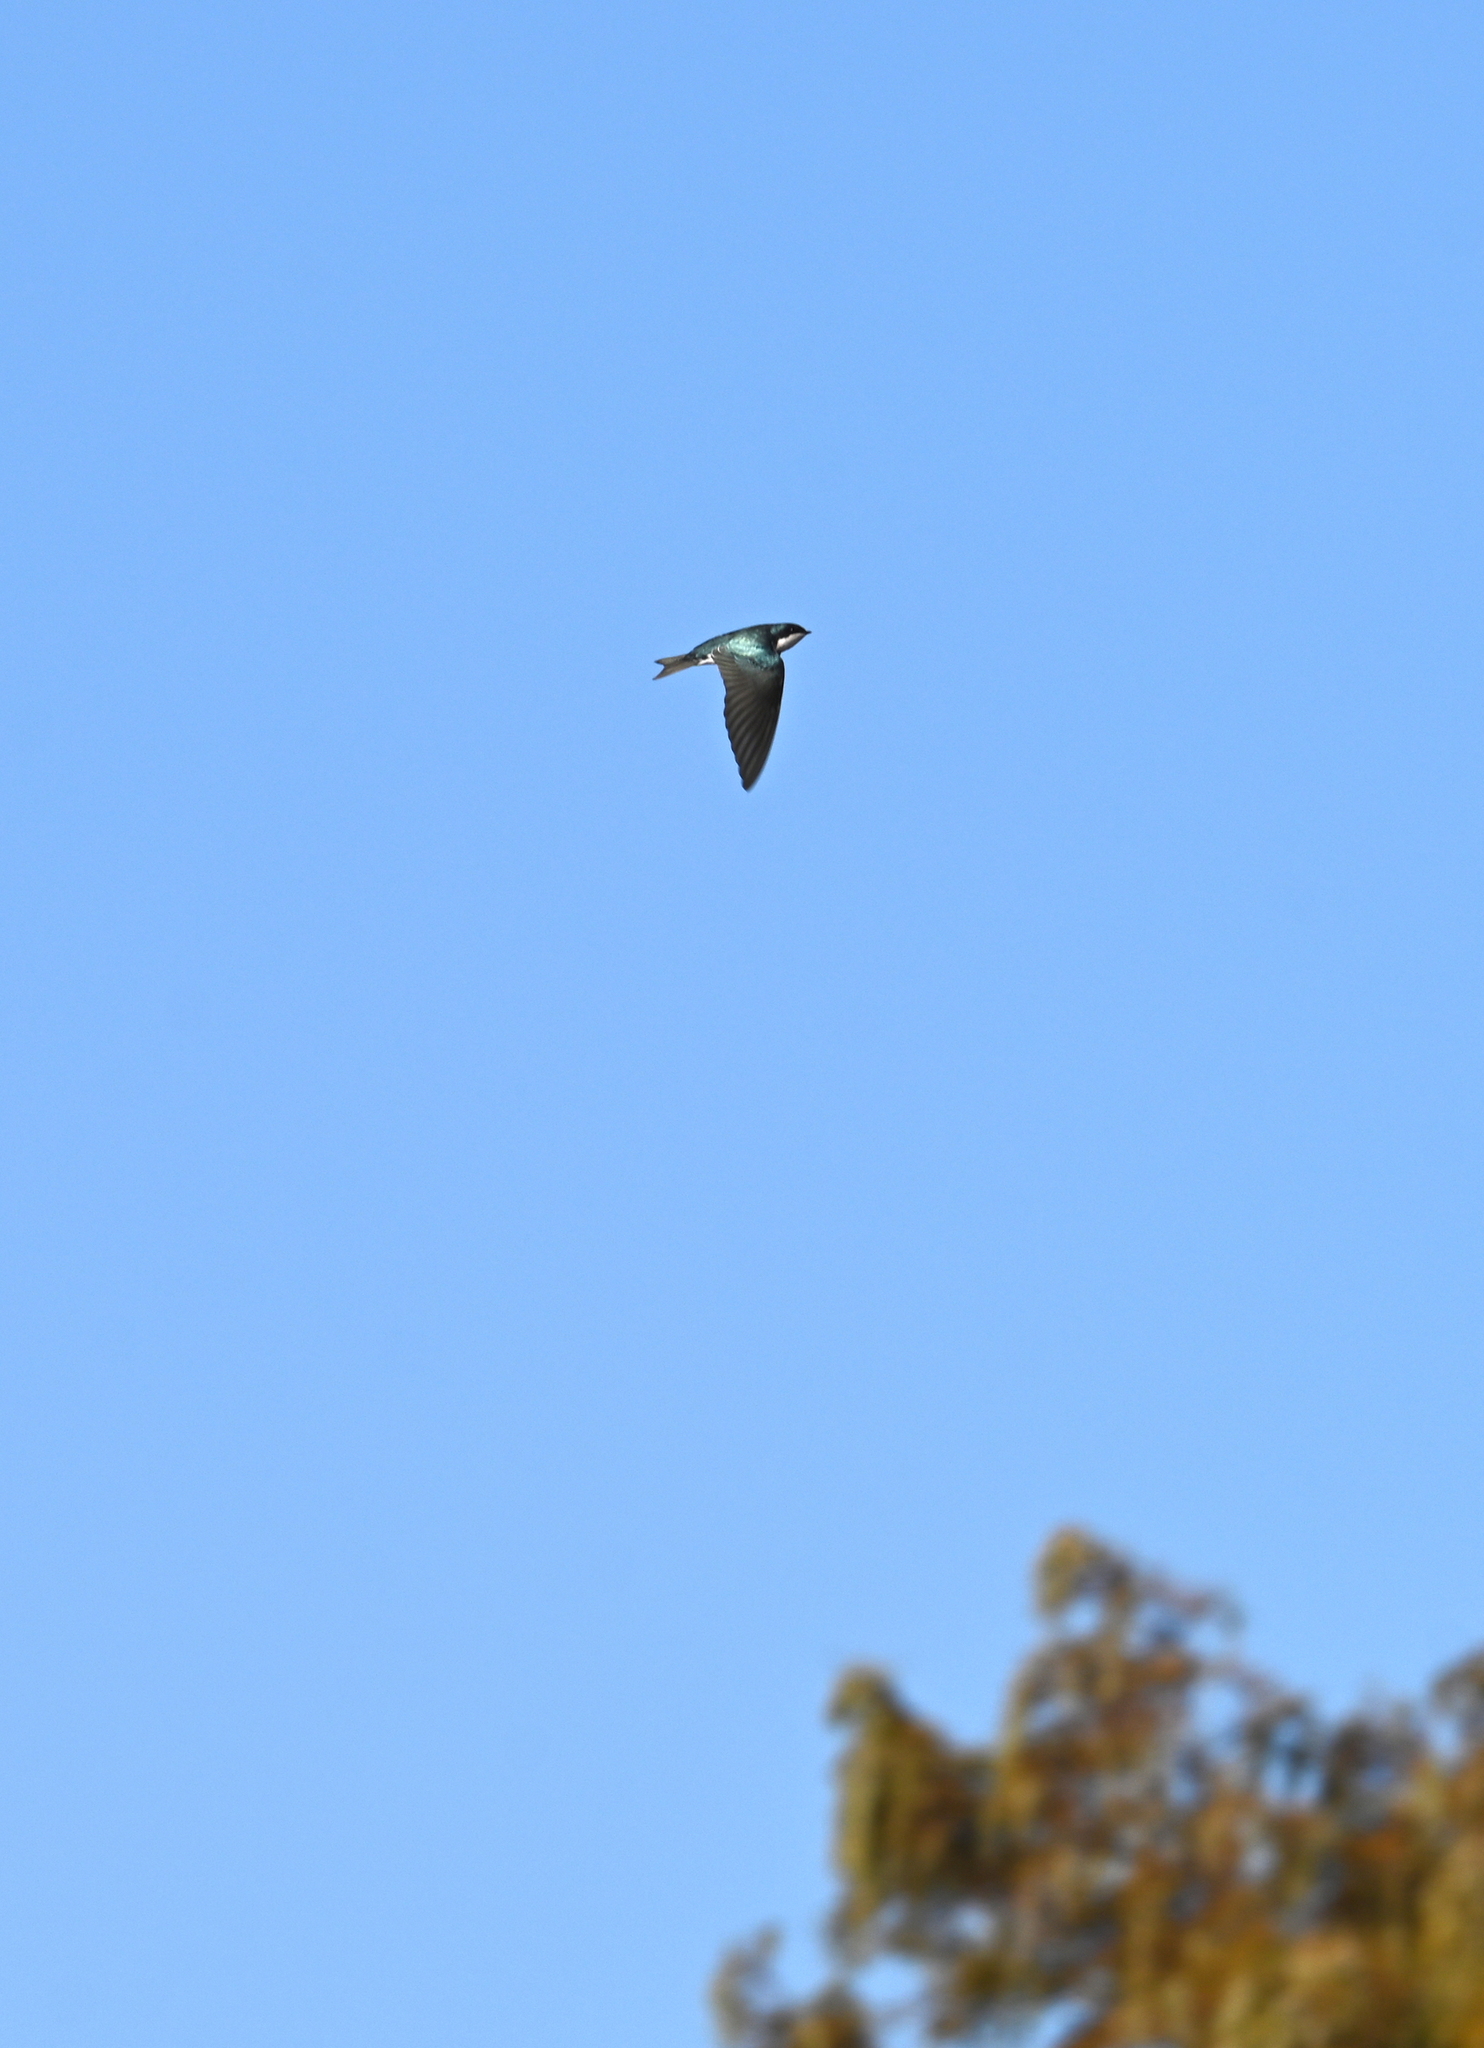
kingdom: Animalia
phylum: Chordata
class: Aves
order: Passeriformes
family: Hirundinidae
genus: Tachycineta
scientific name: Tachycineta bicolor
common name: Tree swallow
